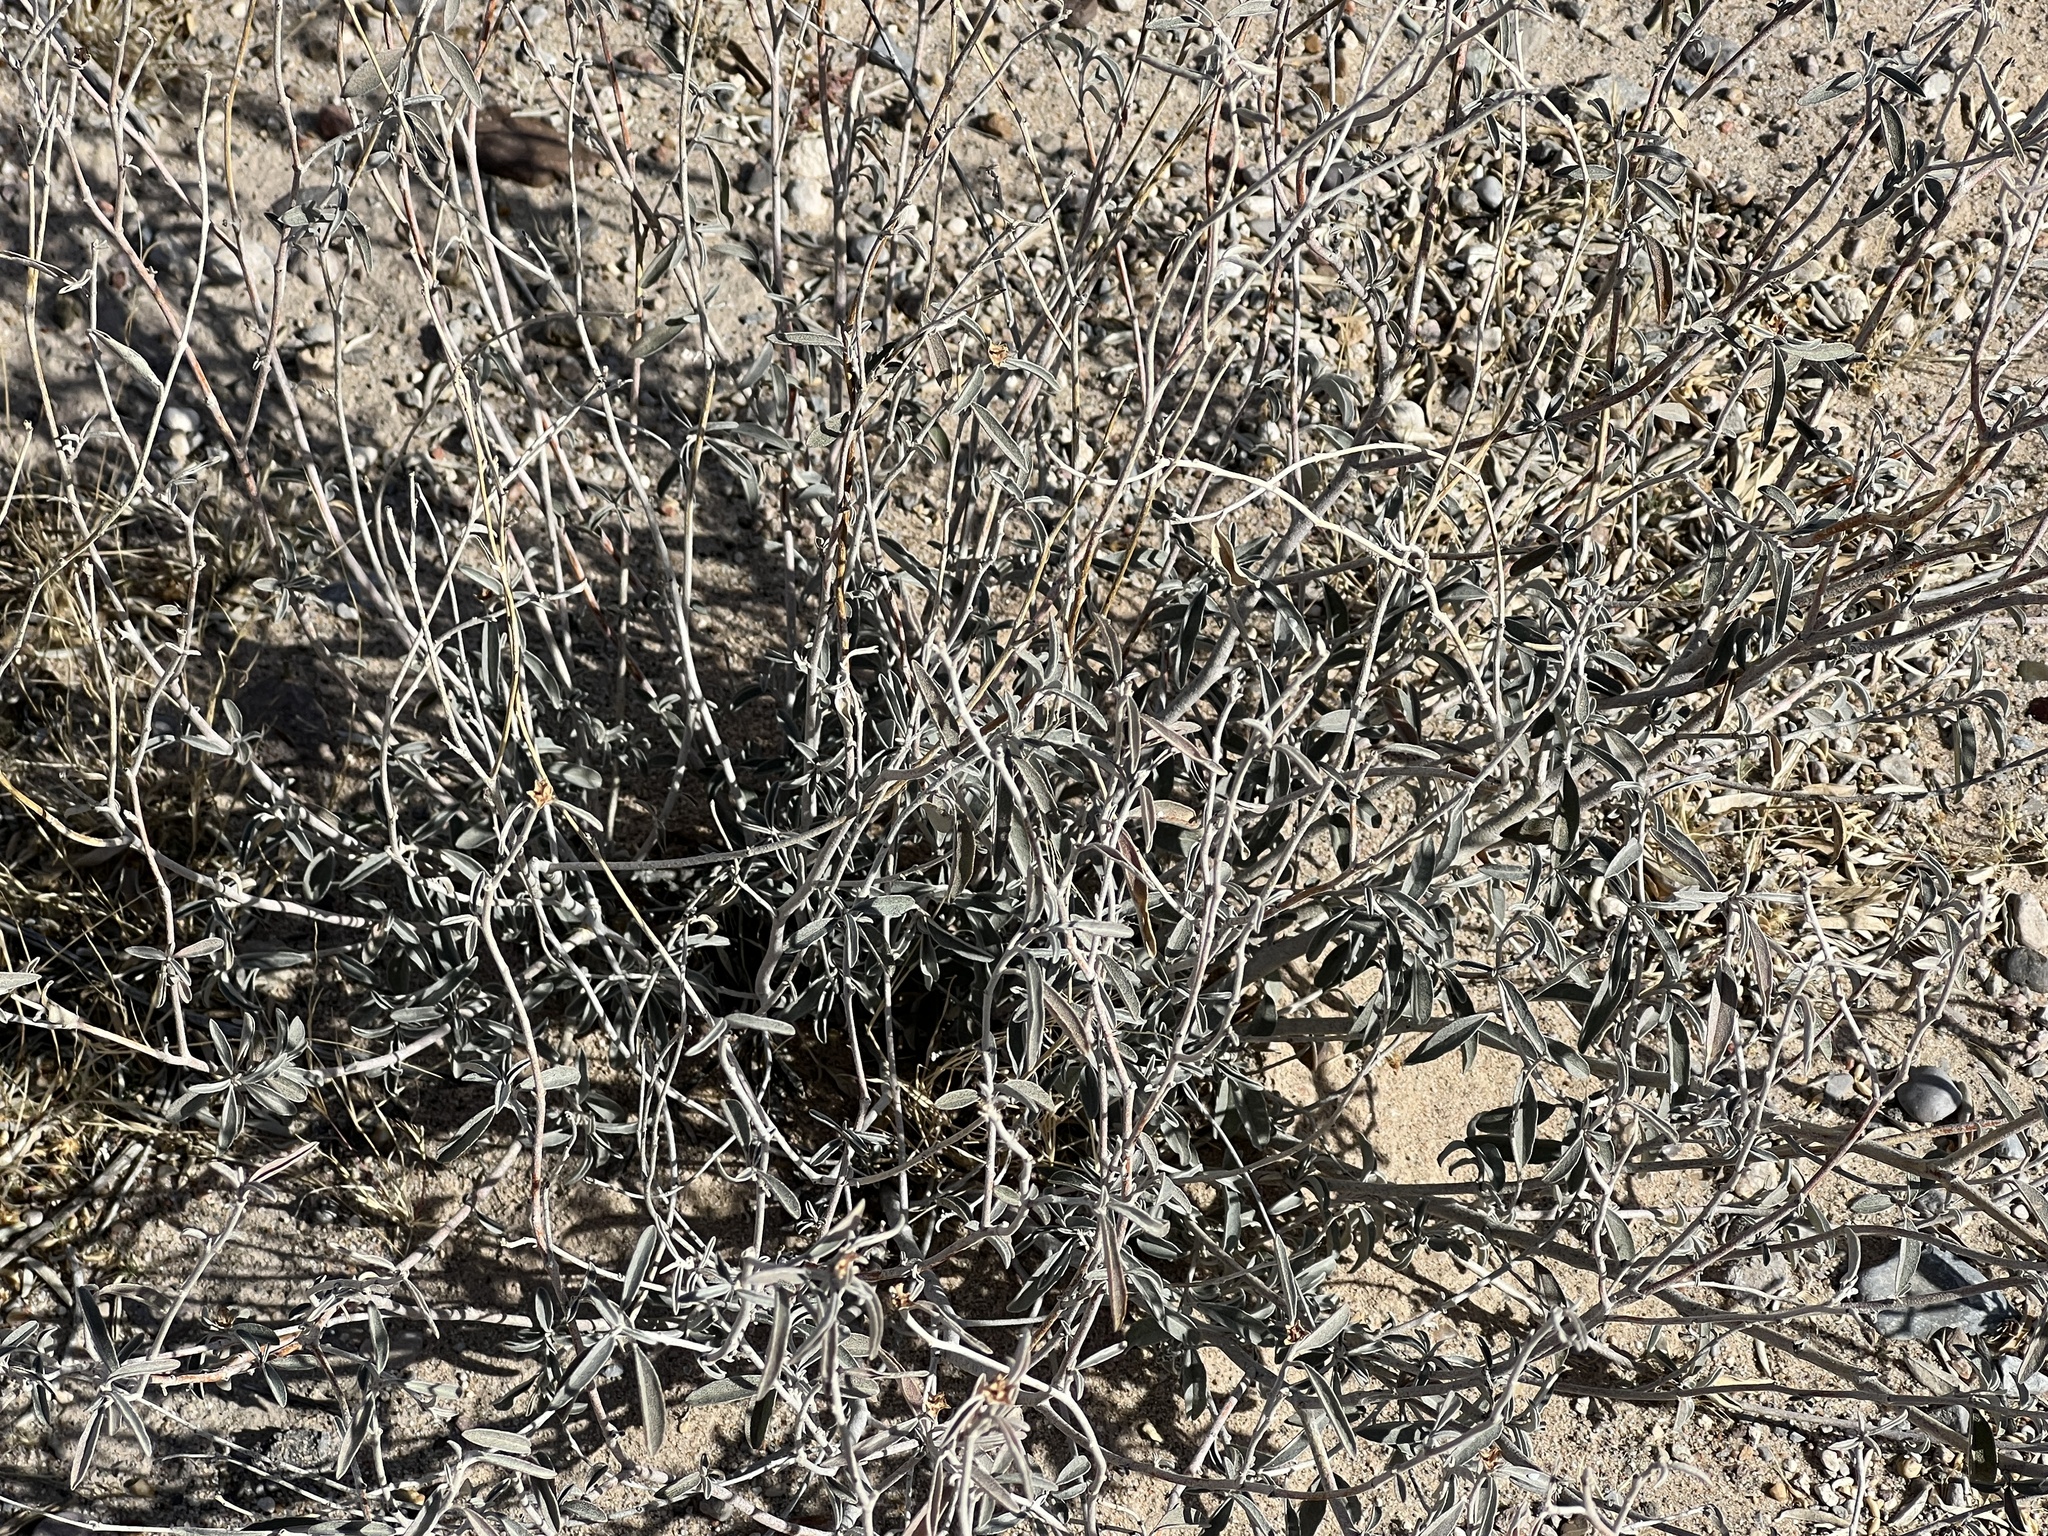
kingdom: Plantae
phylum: Tracheophyta
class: Magnoliopsida
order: Malpighiales
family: Euphorbiaceae
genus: Croton
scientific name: Croton dioicus
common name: Grassland croton
